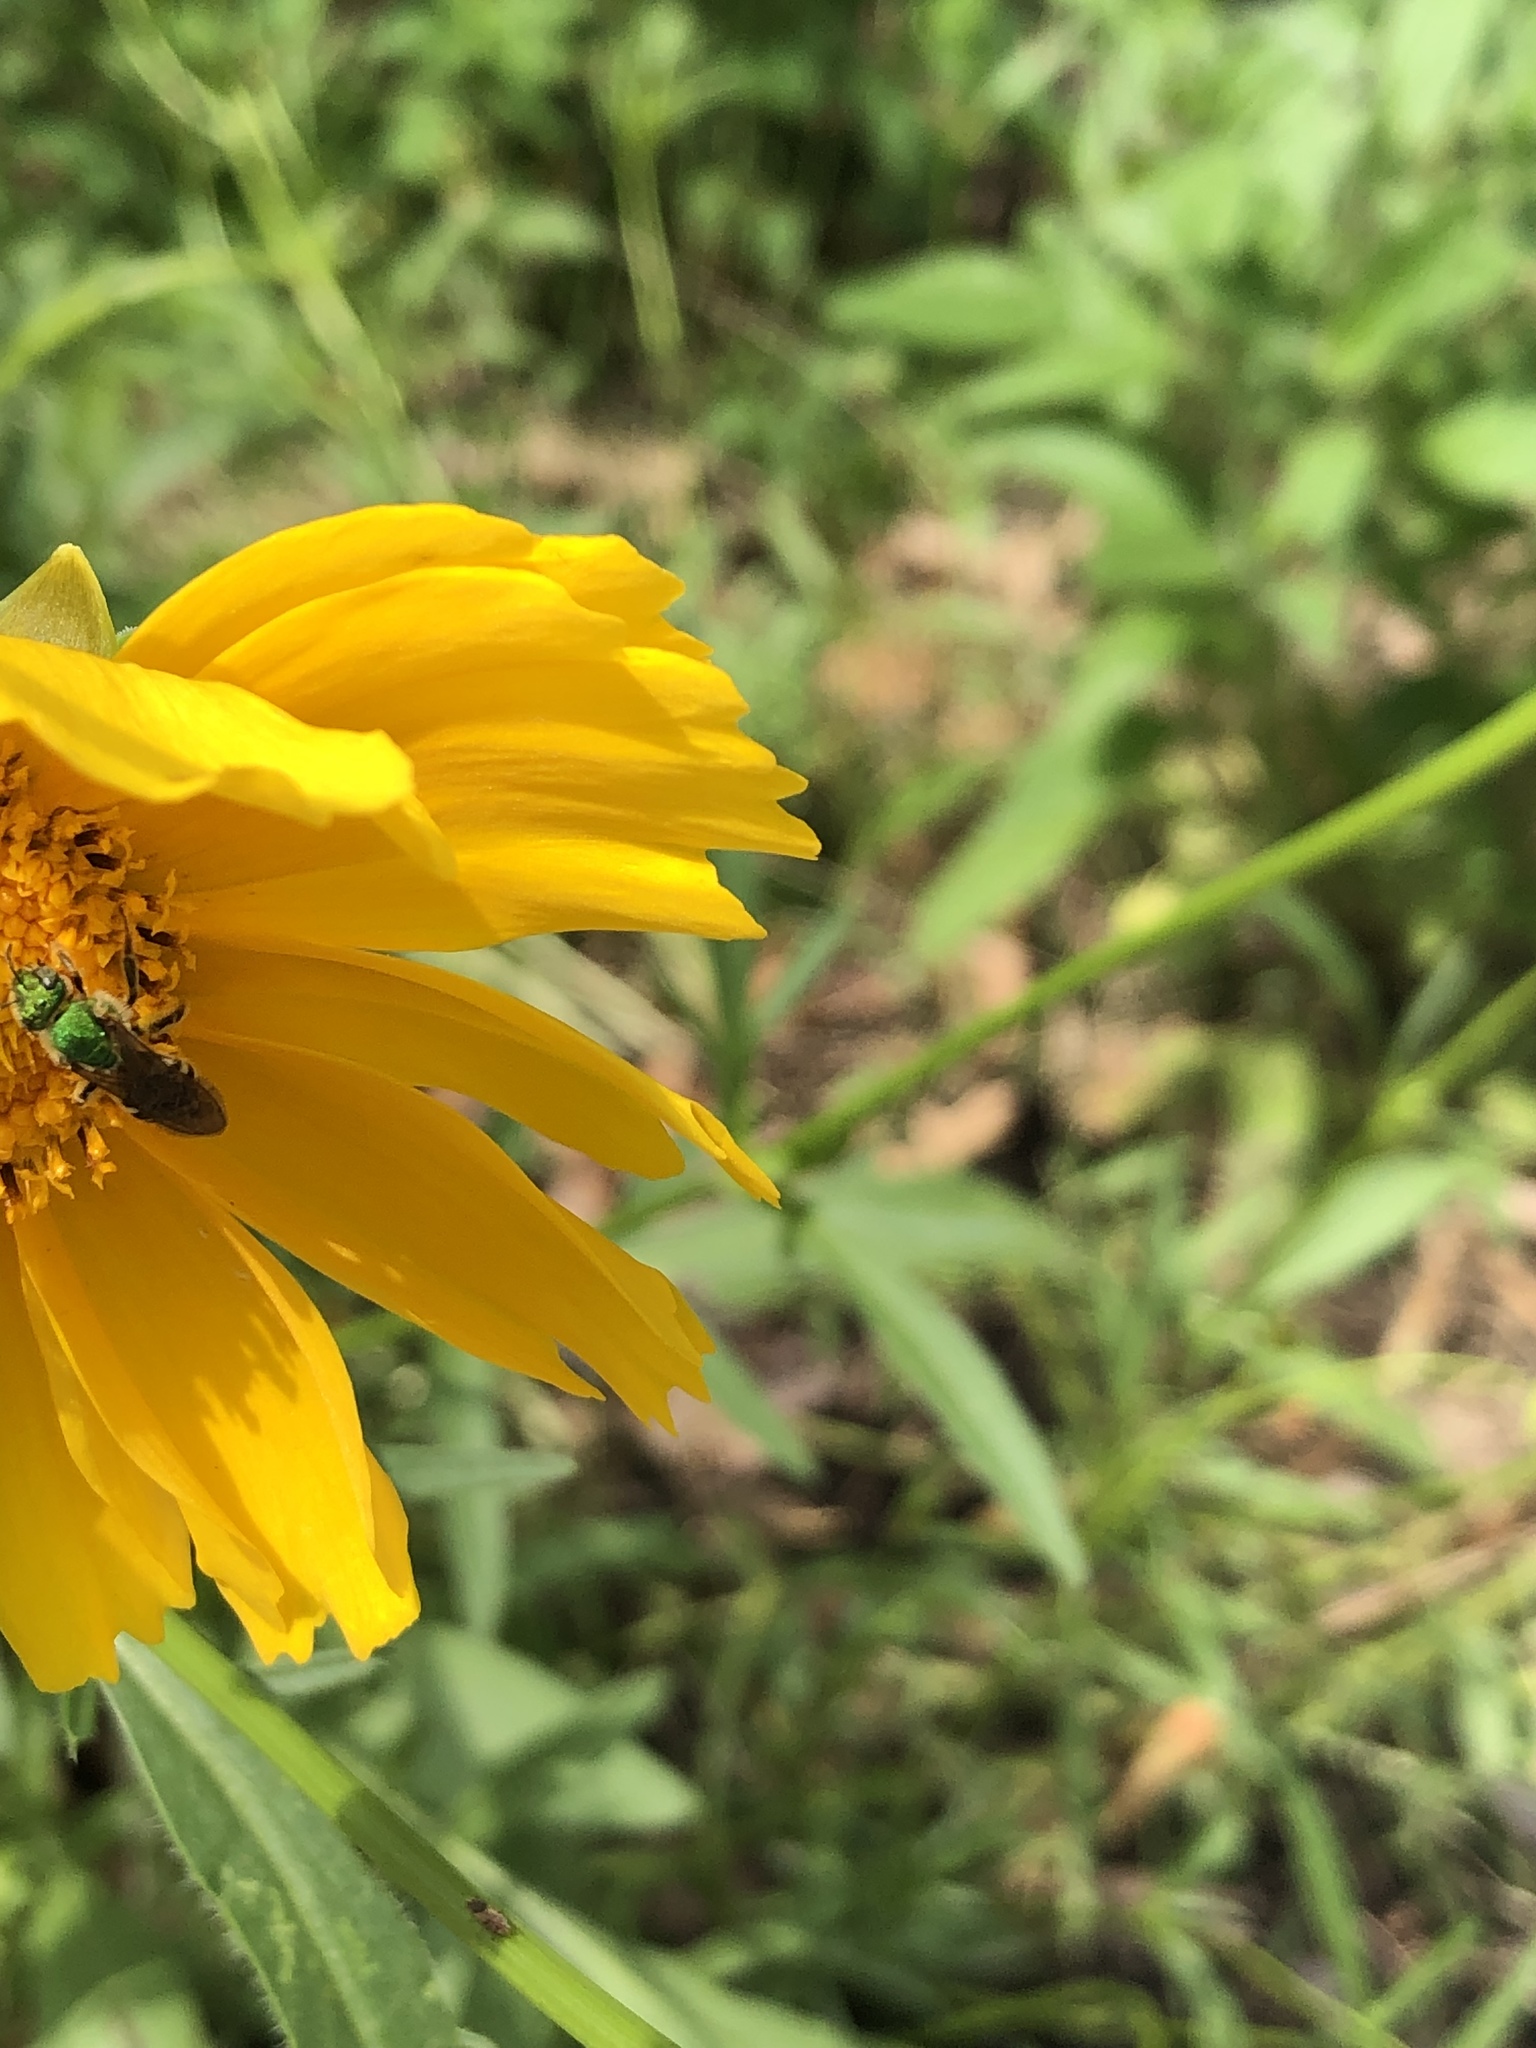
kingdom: Animalia
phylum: Arthropoda
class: Insecta
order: Hymenoptera
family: Halictidae
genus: Agapostemon
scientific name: Agapostemon virescens
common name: Bicolored striped sweat bee
